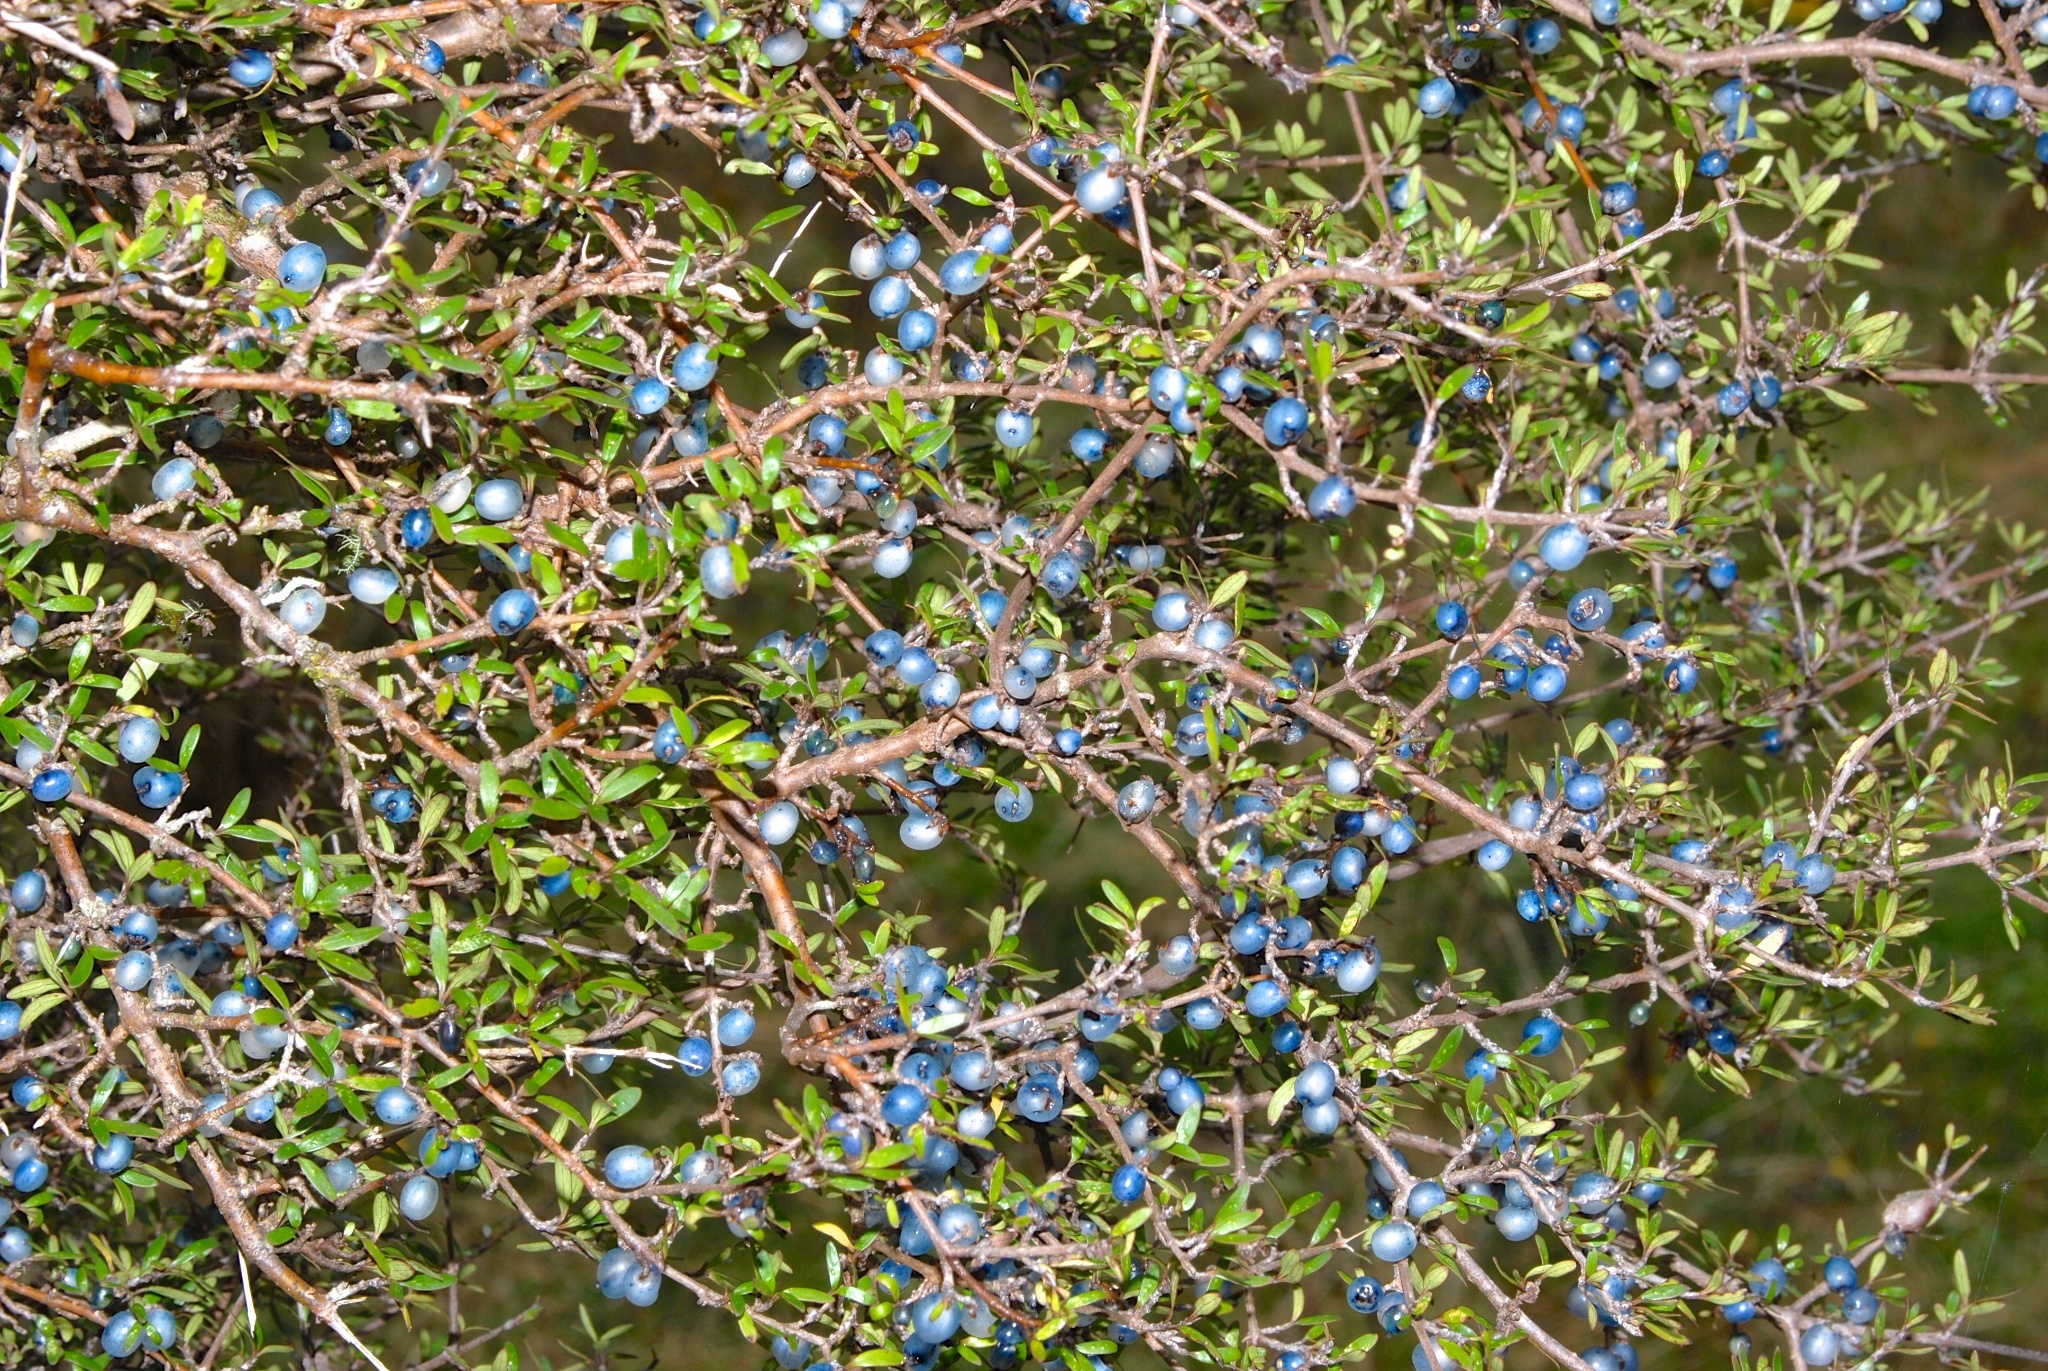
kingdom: Plantae
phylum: Tracheophyta
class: Magnoliopsida
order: Gentianales
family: Rubiaceae
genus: Coprosma
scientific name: Coprosma propinqua
